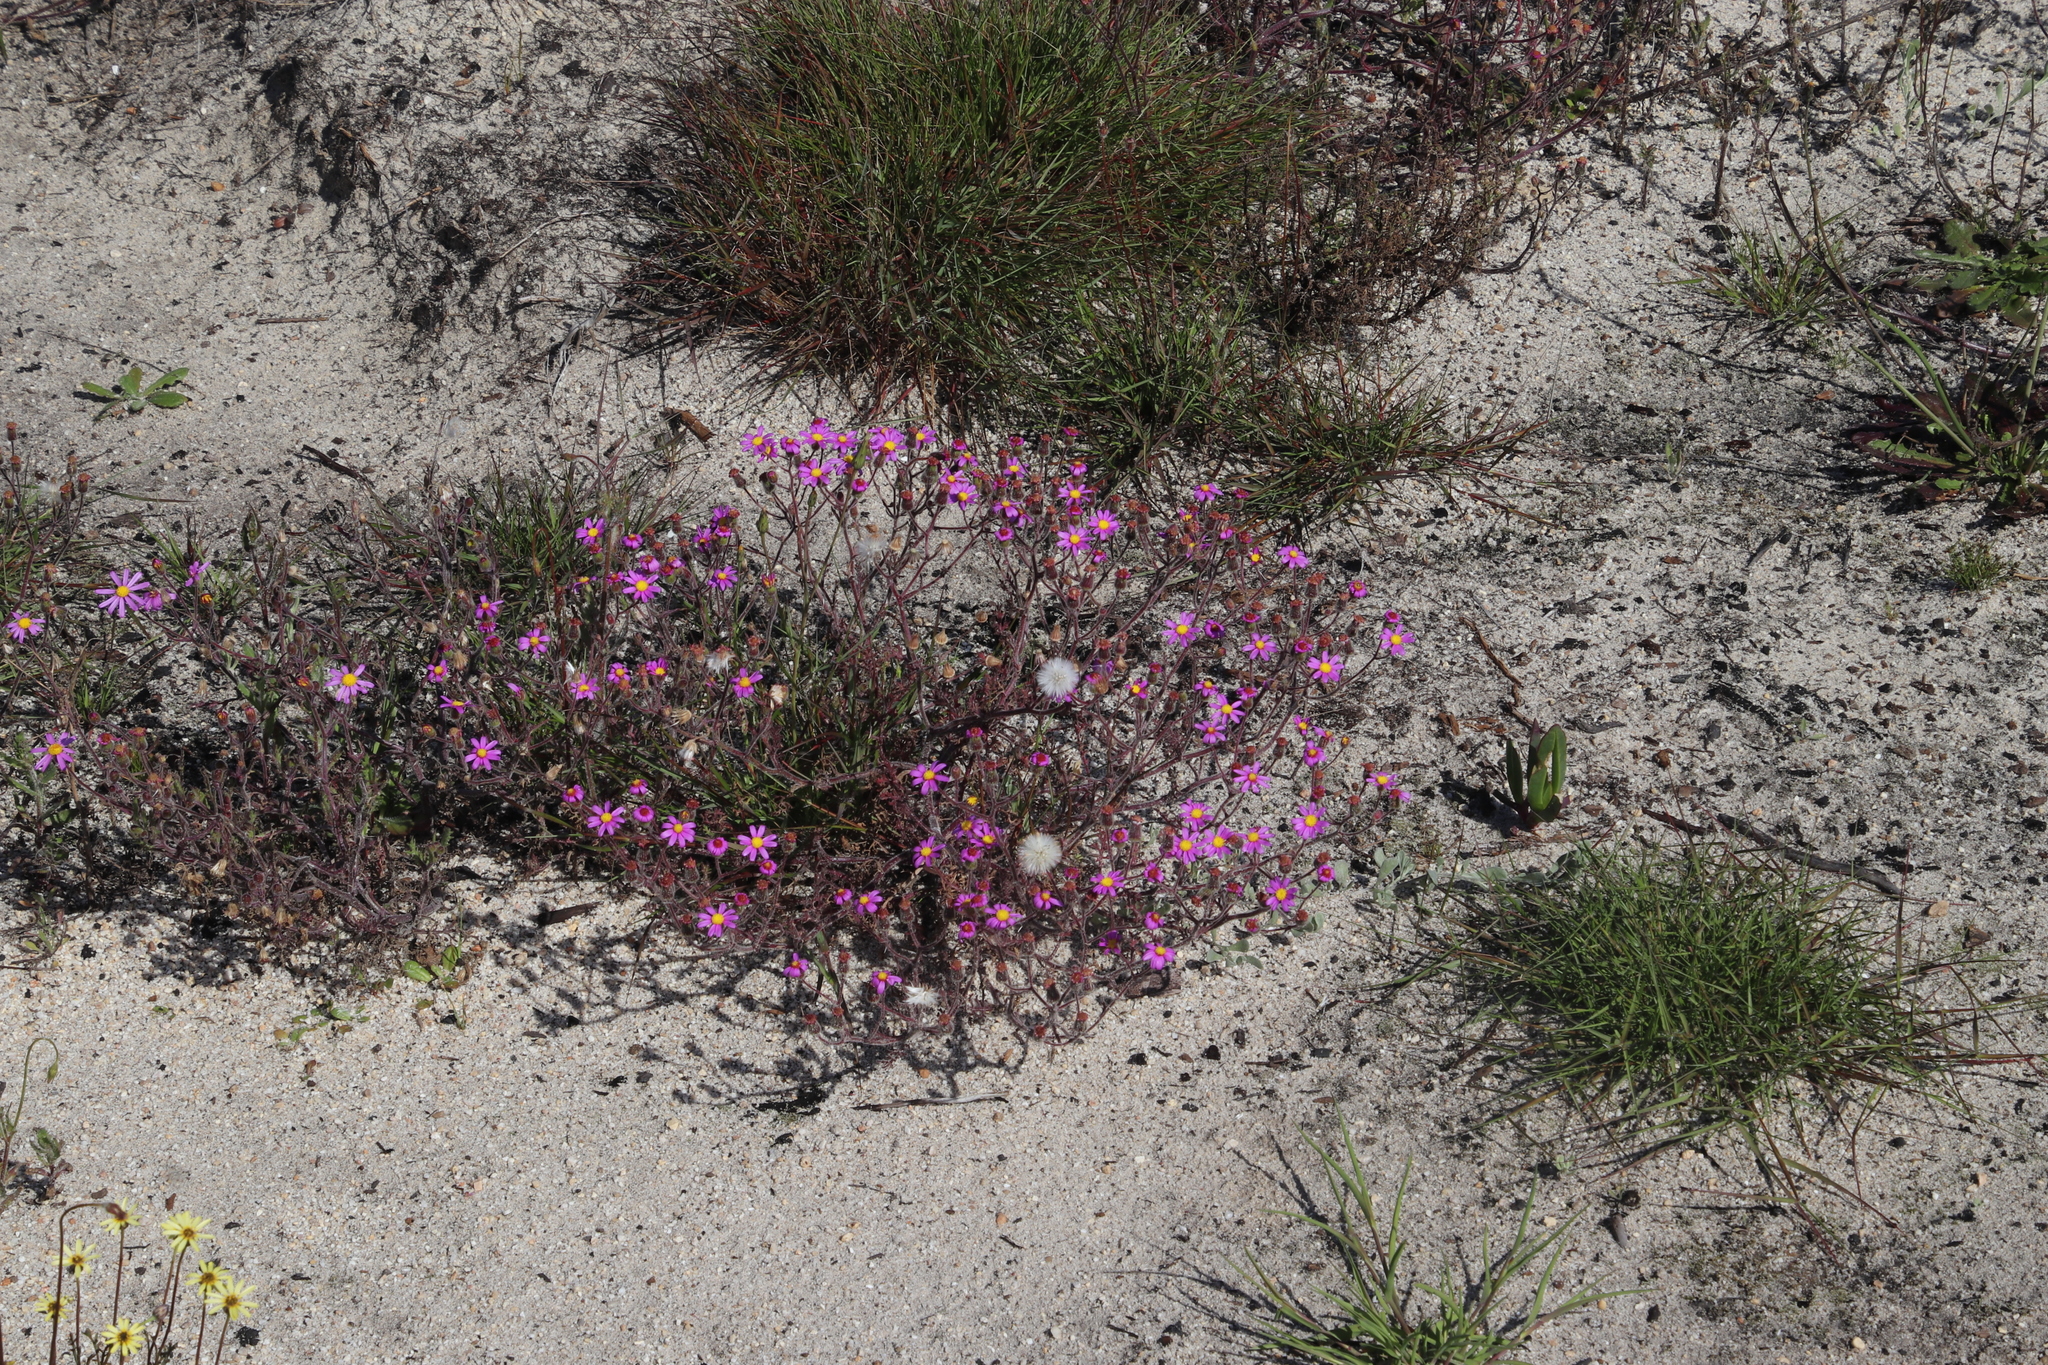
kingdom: Plantae
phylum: Tracheophyta
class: Magnoliopsida
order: Asterales
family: Asteraceae
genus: Senecio
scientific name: Senecio arenarius
